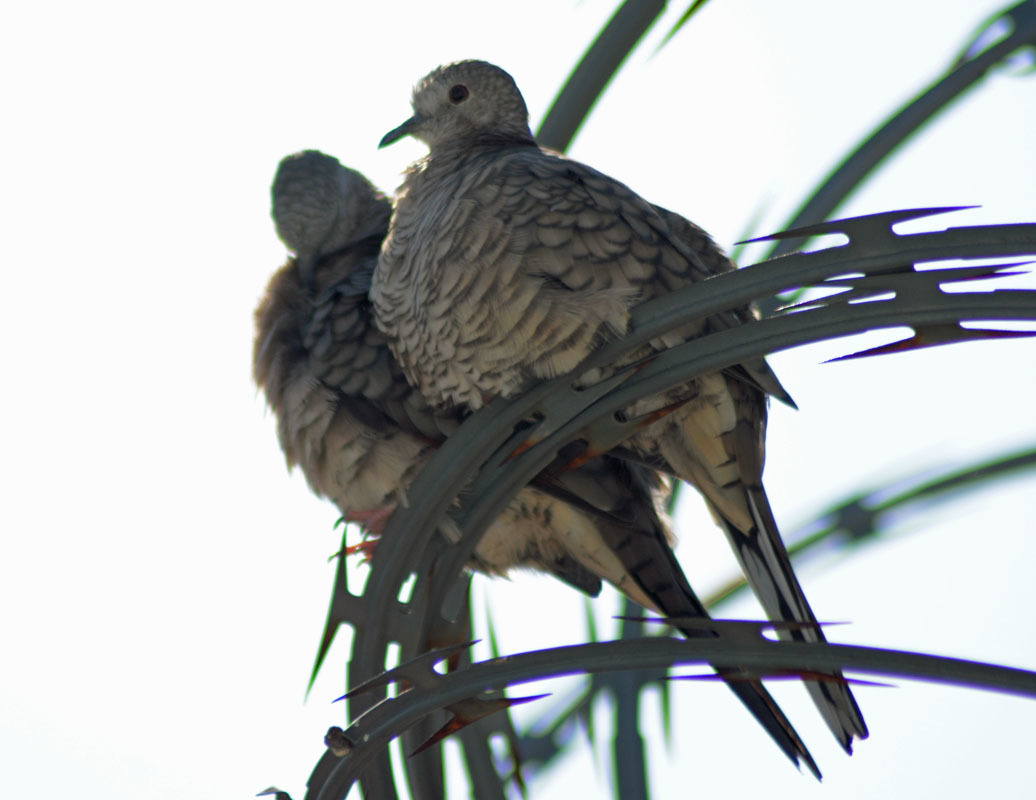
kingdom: Animalia
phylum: Chordata
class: Aves
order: Columbiformes
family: Columbidae
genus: Columbina
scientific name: Columbina inca
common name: Inca dove
